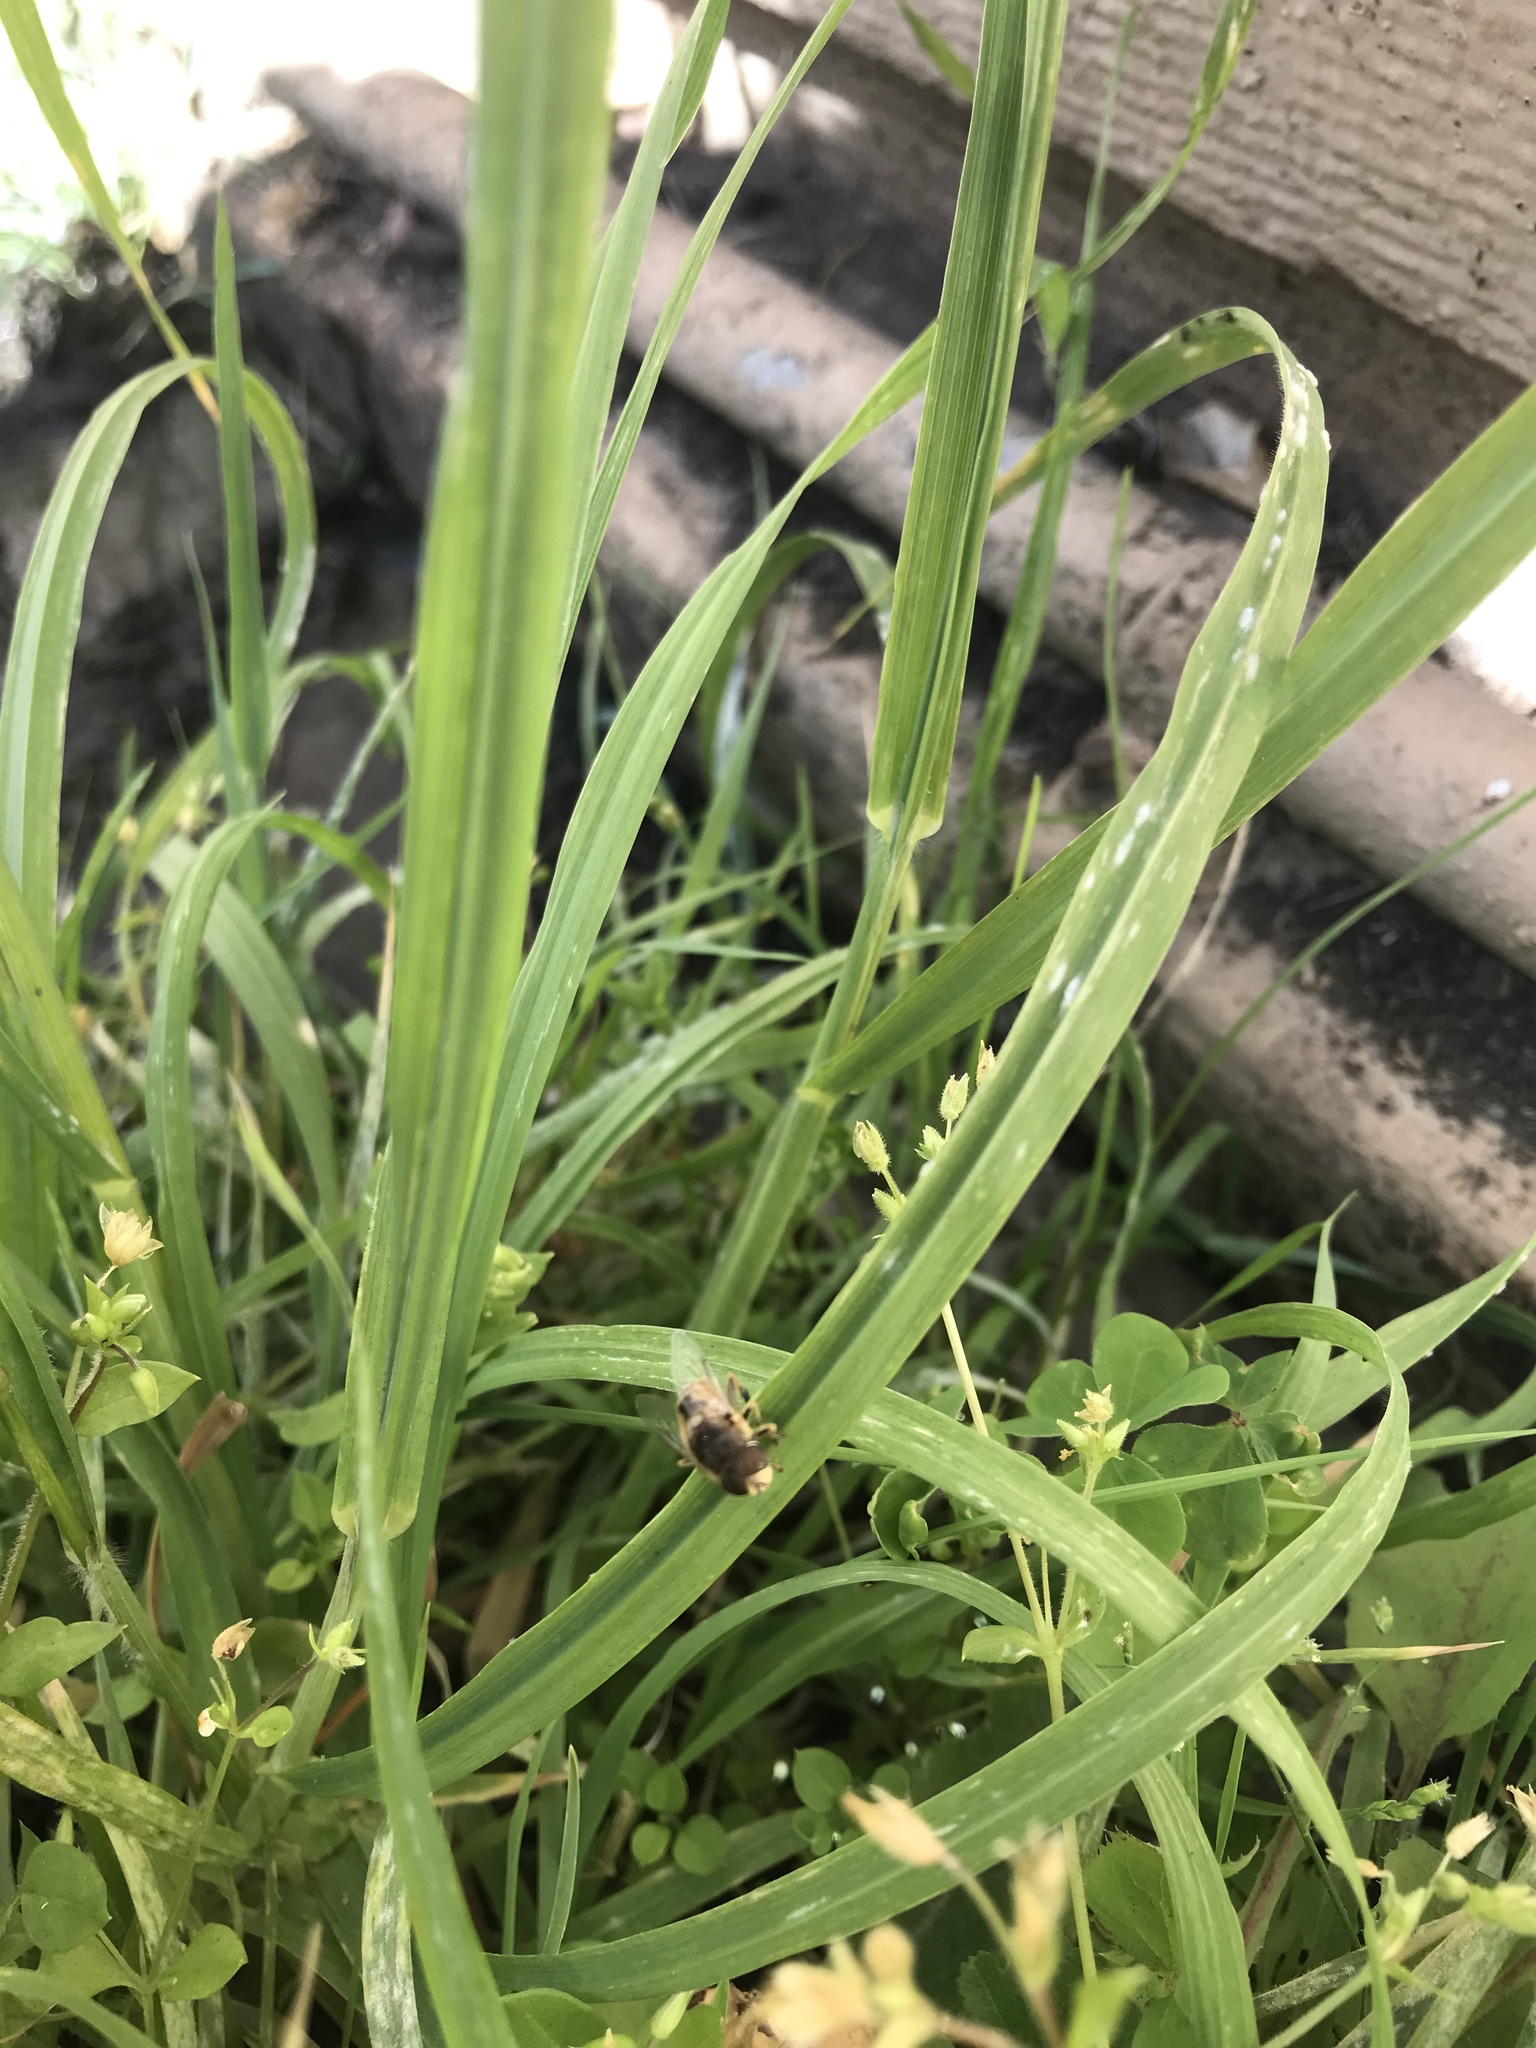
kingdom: Animalia
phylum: Arthropoda
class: Insecta
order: Diptera
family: Syrphidae
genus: Eristalis
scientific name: Eristalis arbustorum
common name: Hover fly
